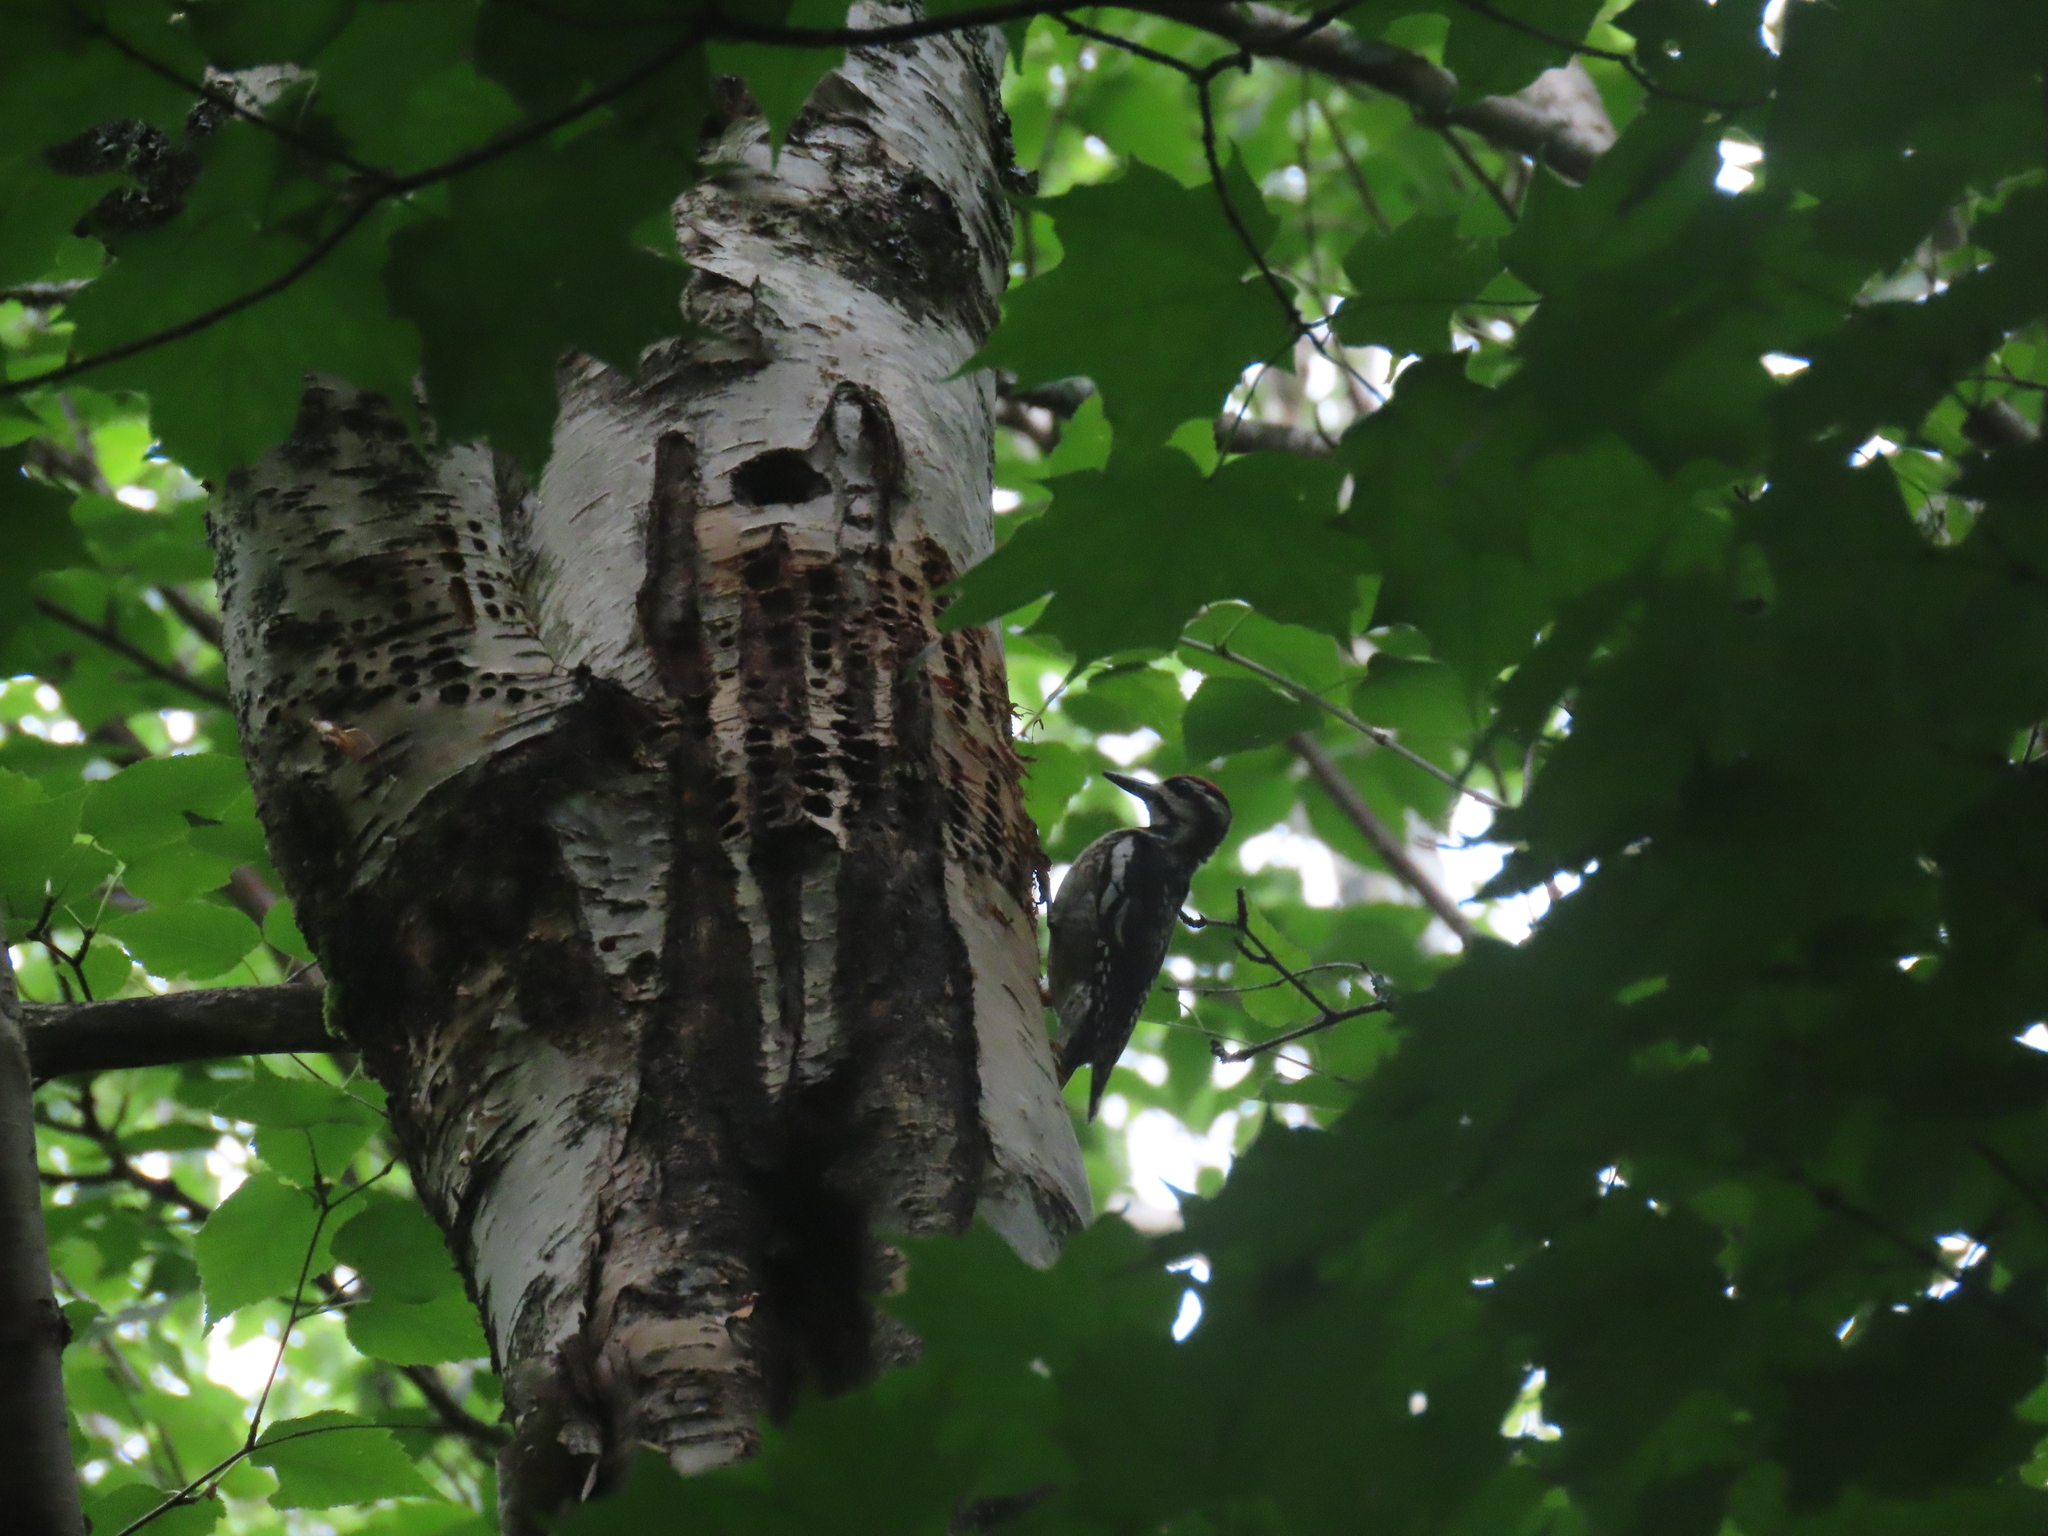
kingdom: Animalia
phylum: Chordata
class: Aves
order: Piciformes
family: Picidae
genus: Sphyrapicus
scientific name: Sphyrapicus varius
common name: Yellow-bellied sapsucker
